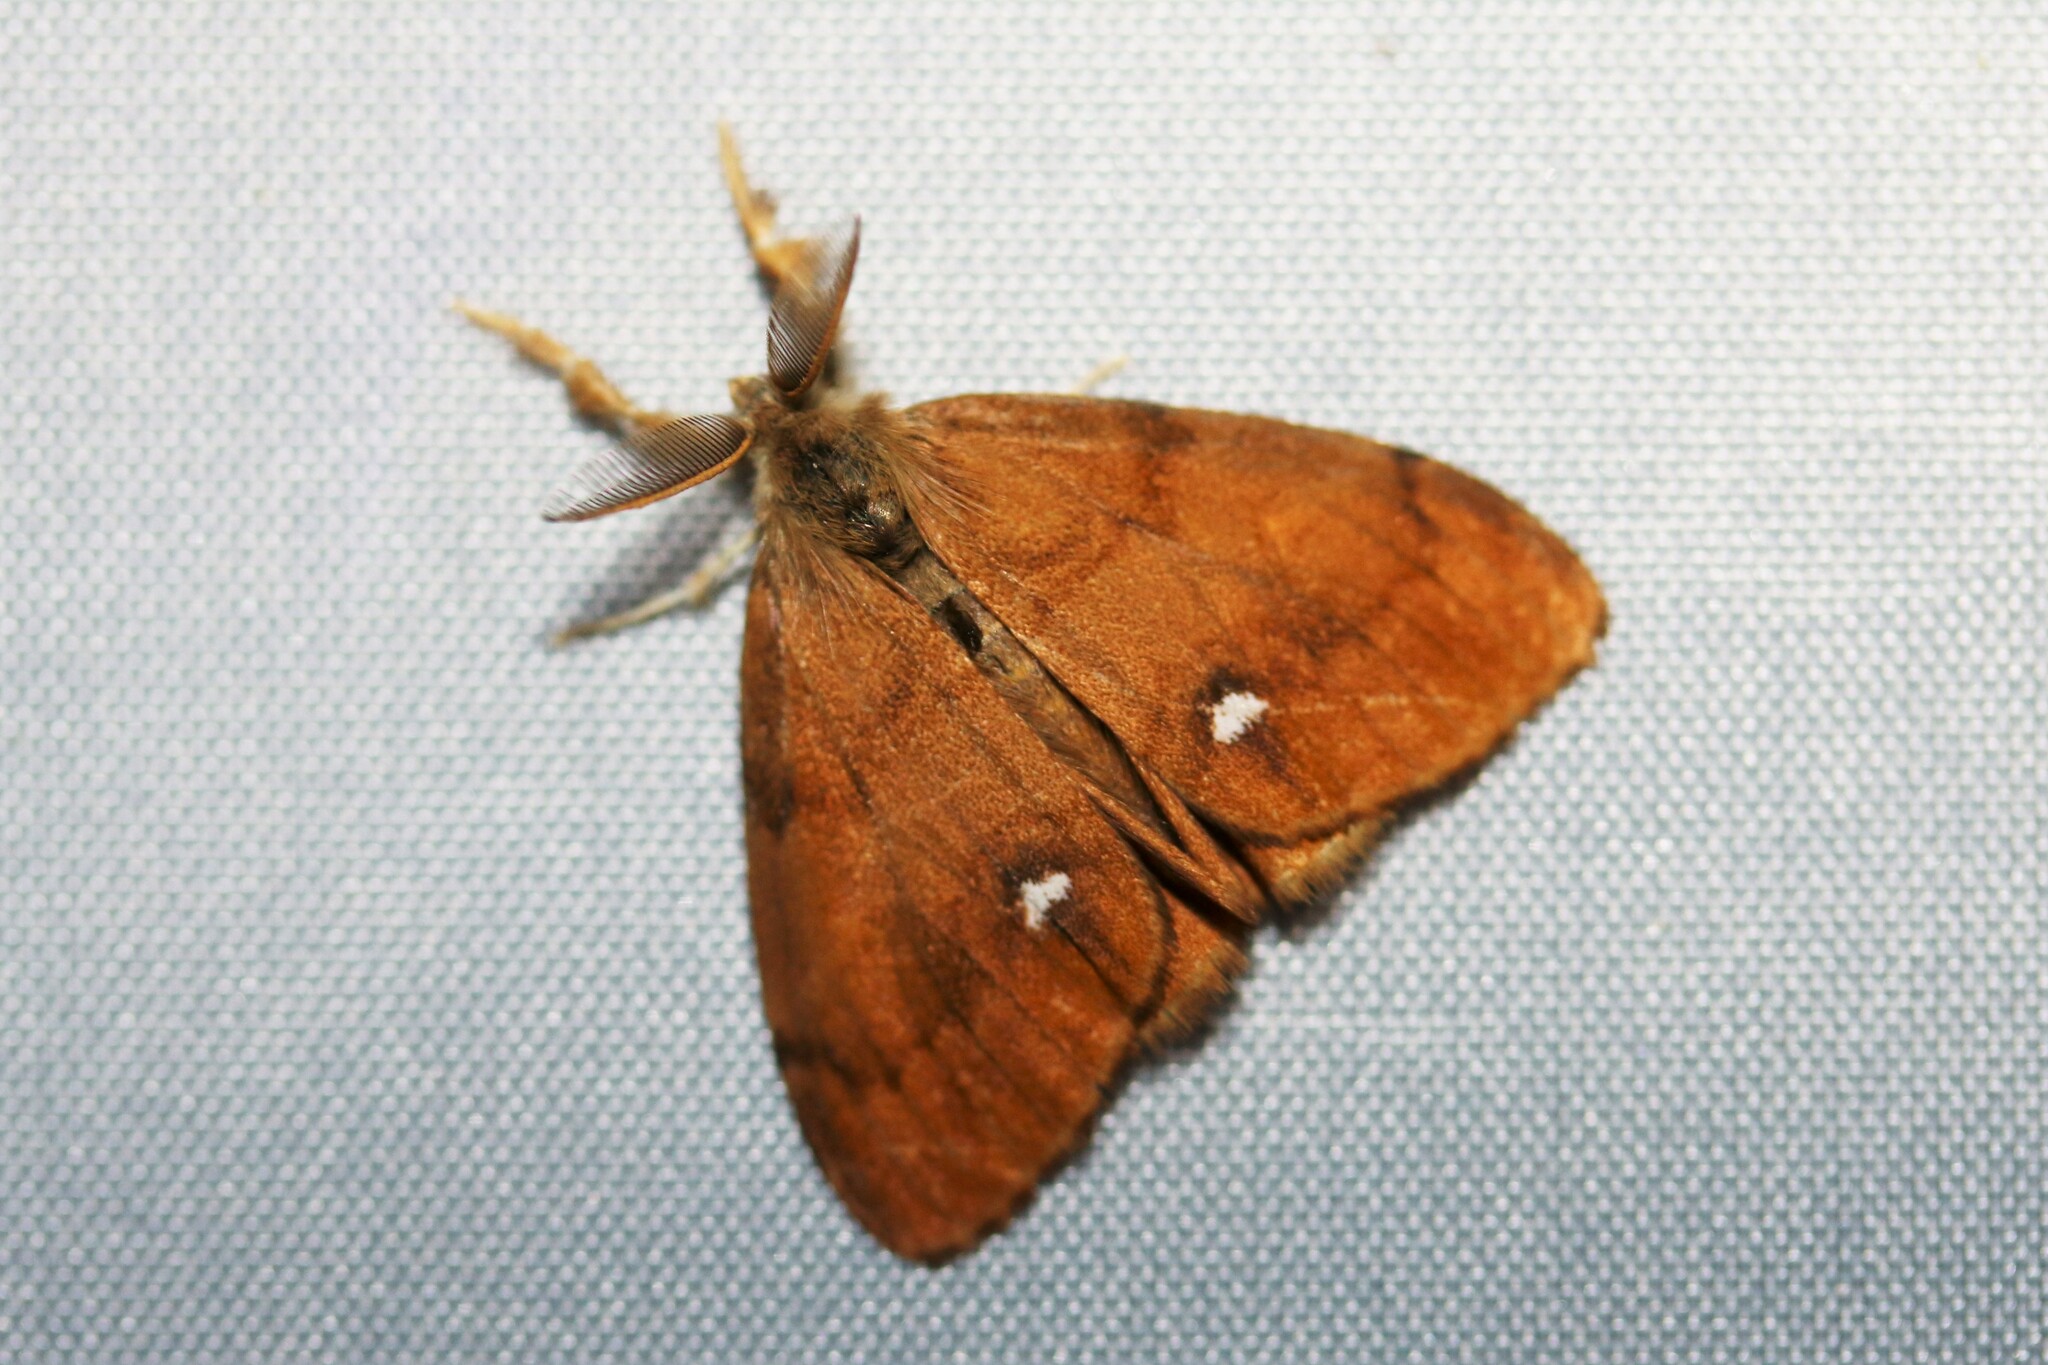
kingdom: Animalia
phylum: Arthropoda
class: Insecta
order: Lepidoptera
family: Erebidae
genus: Orgyia
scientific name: Orgyia antiqua
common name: Vapourer
